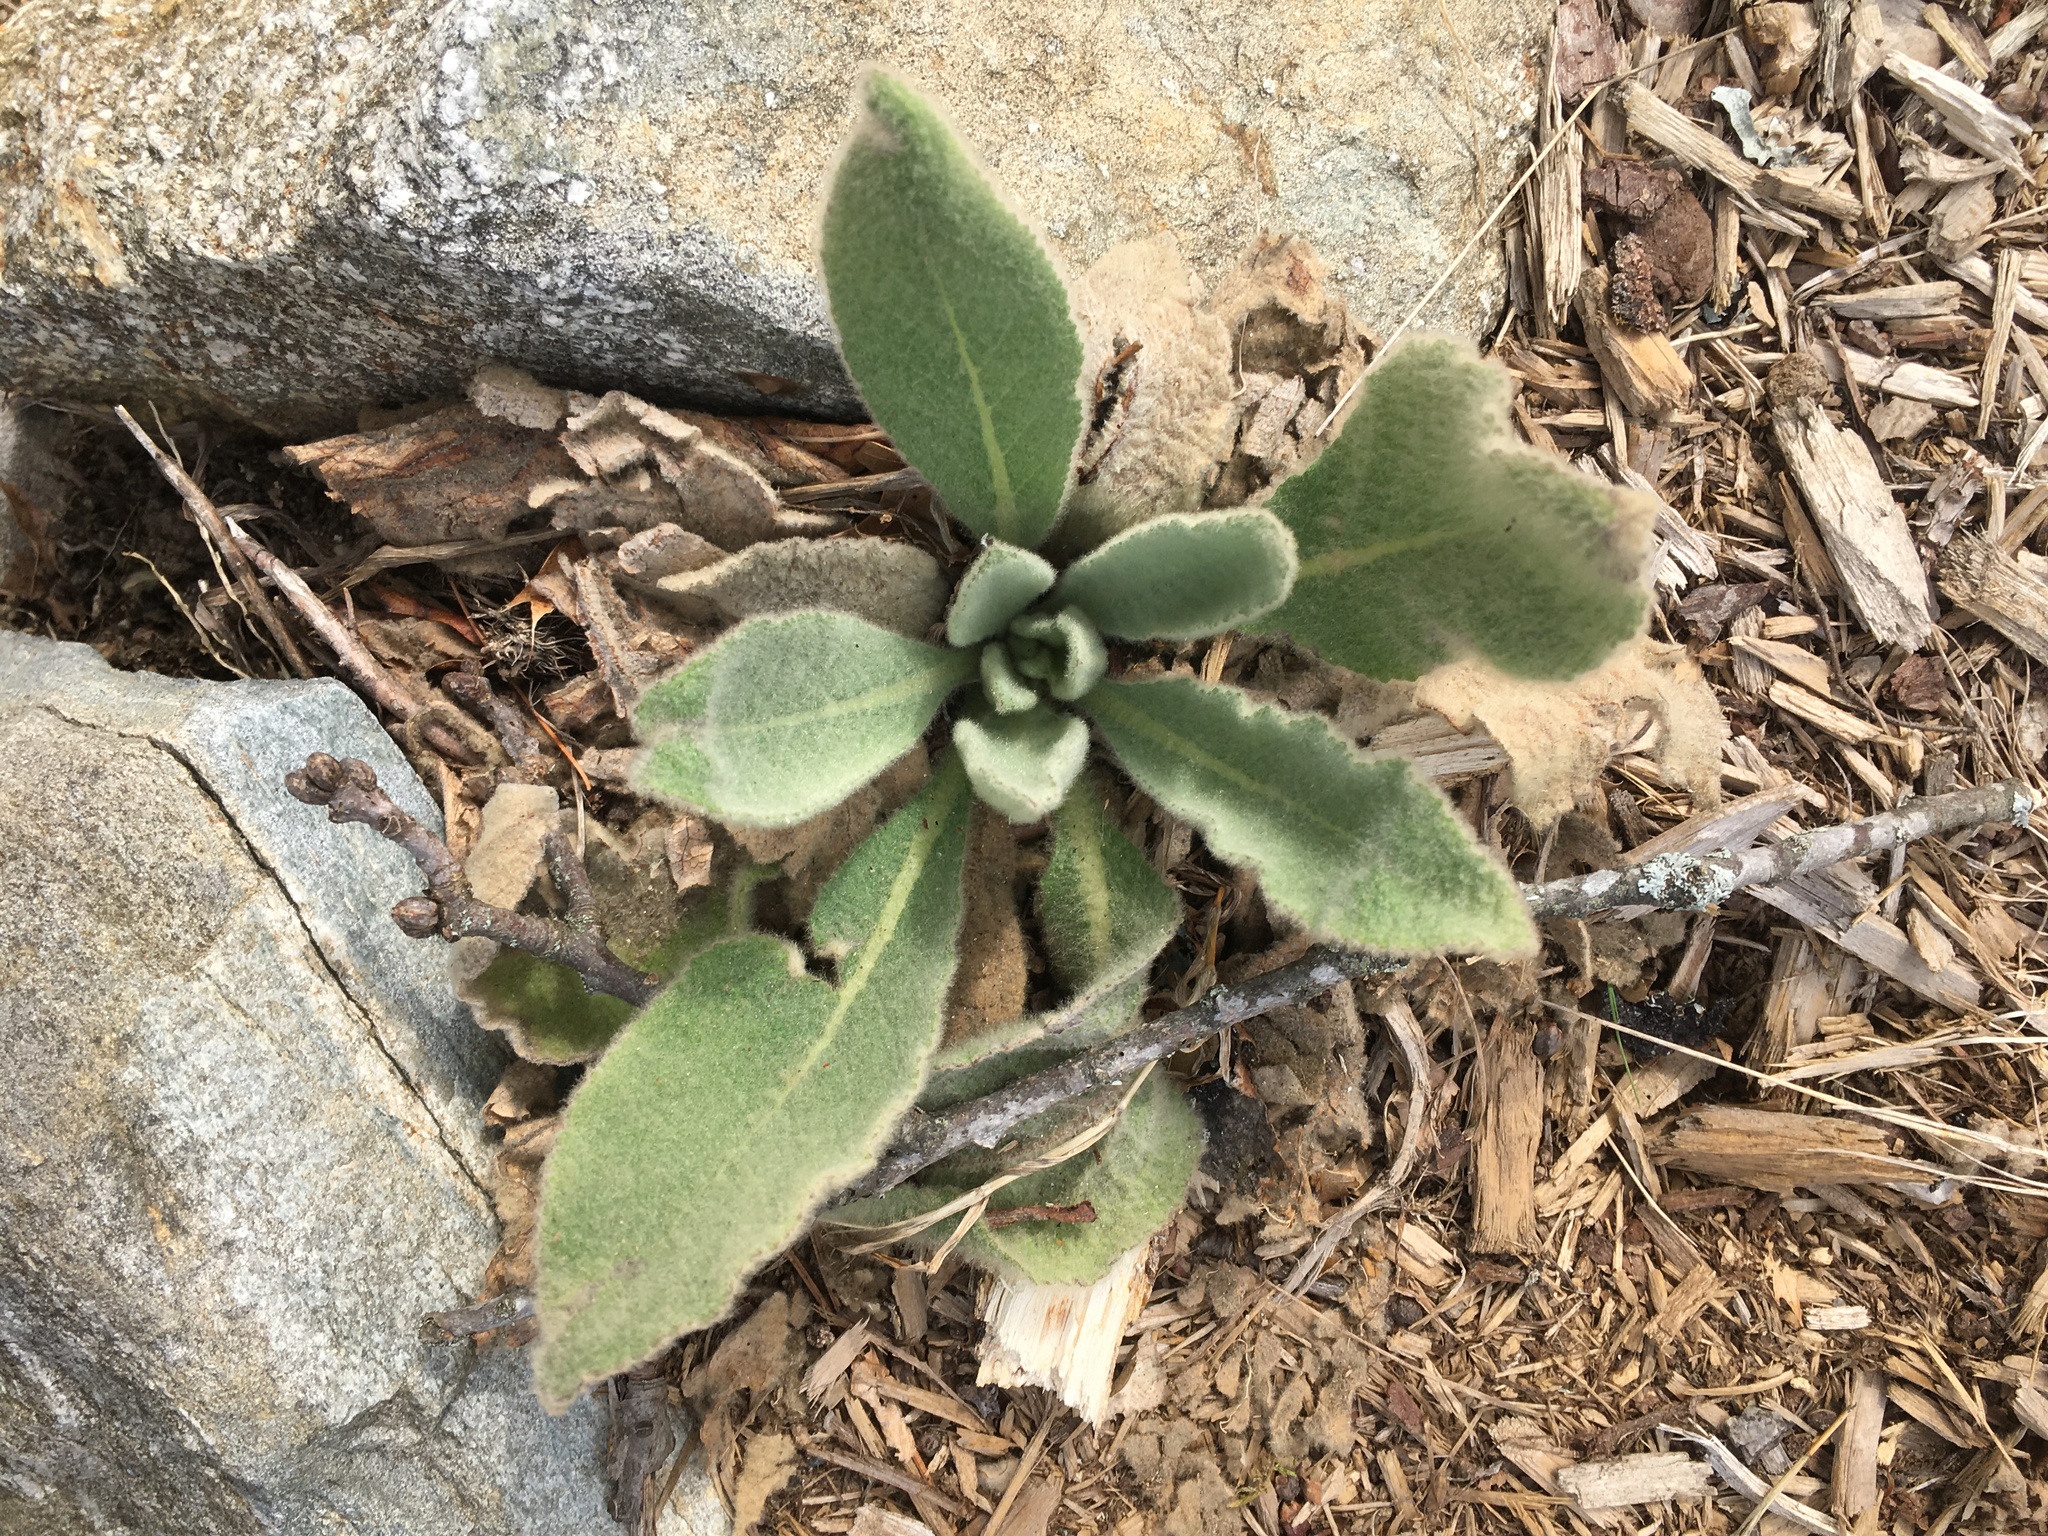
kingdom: Plantae
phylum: Tracheophyta
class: Magnoliopsida
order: Lamiales
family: Scrophulariaceae
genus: Verbascum
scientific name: Verbascum thapsus
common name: Common mullein
